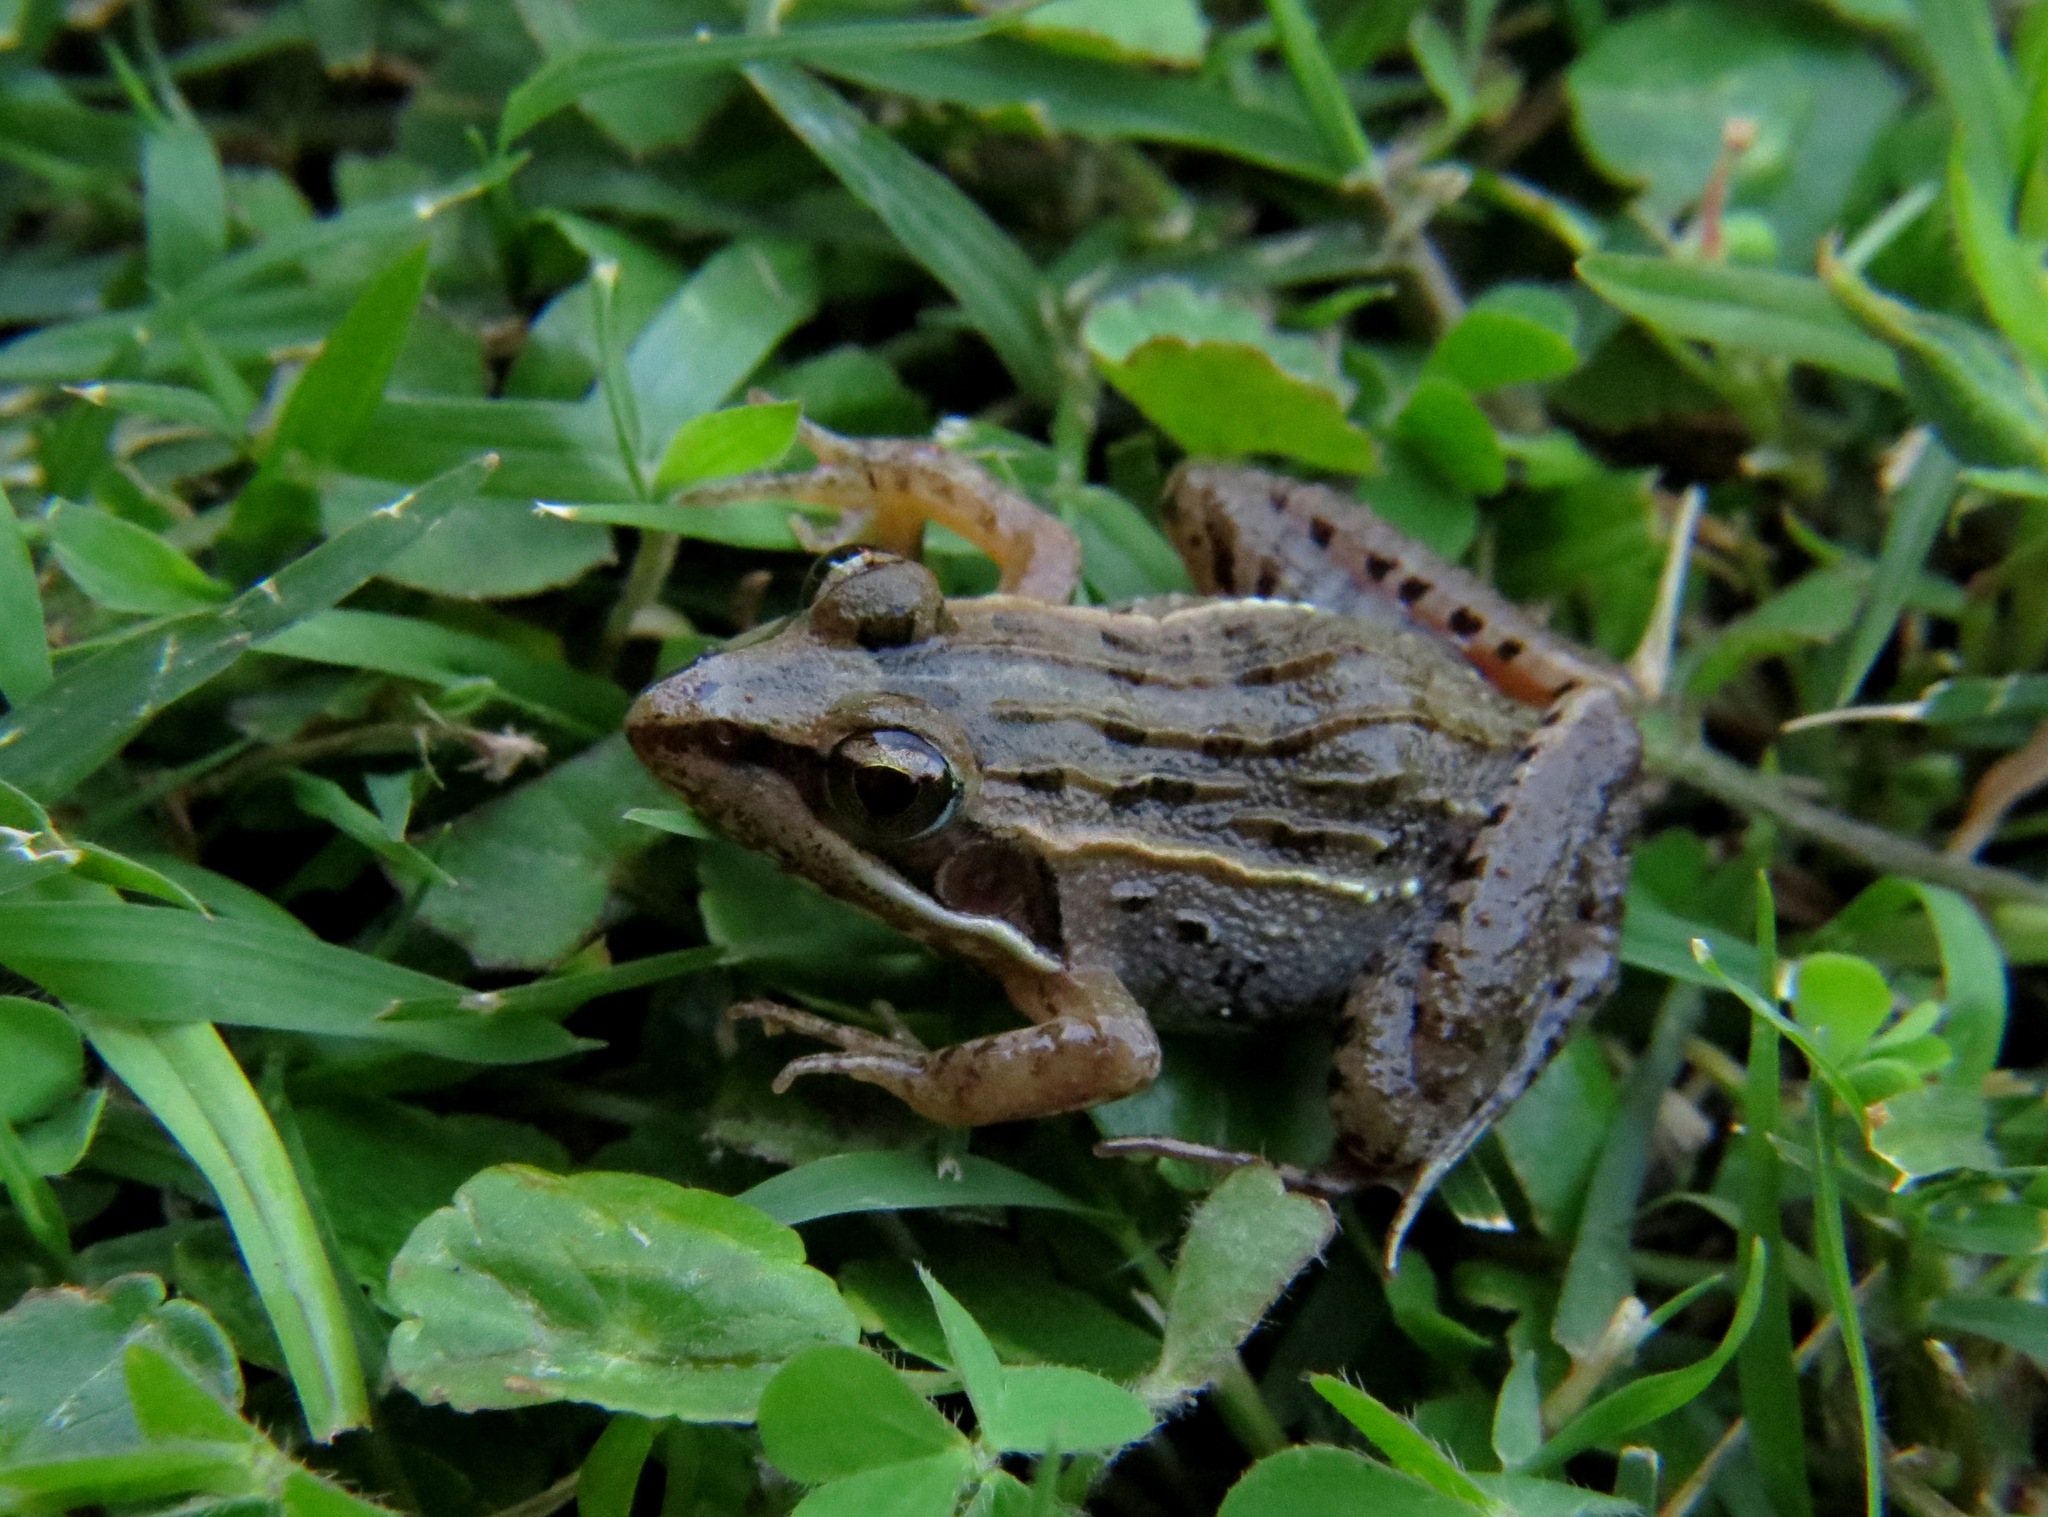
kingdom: Animalia
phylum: Chordata
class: Amphibia
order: Anura
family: Ptychadenidae
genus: Ptychadena
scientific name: Ptychadena mascareniensis
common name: Mascarene grass frog
